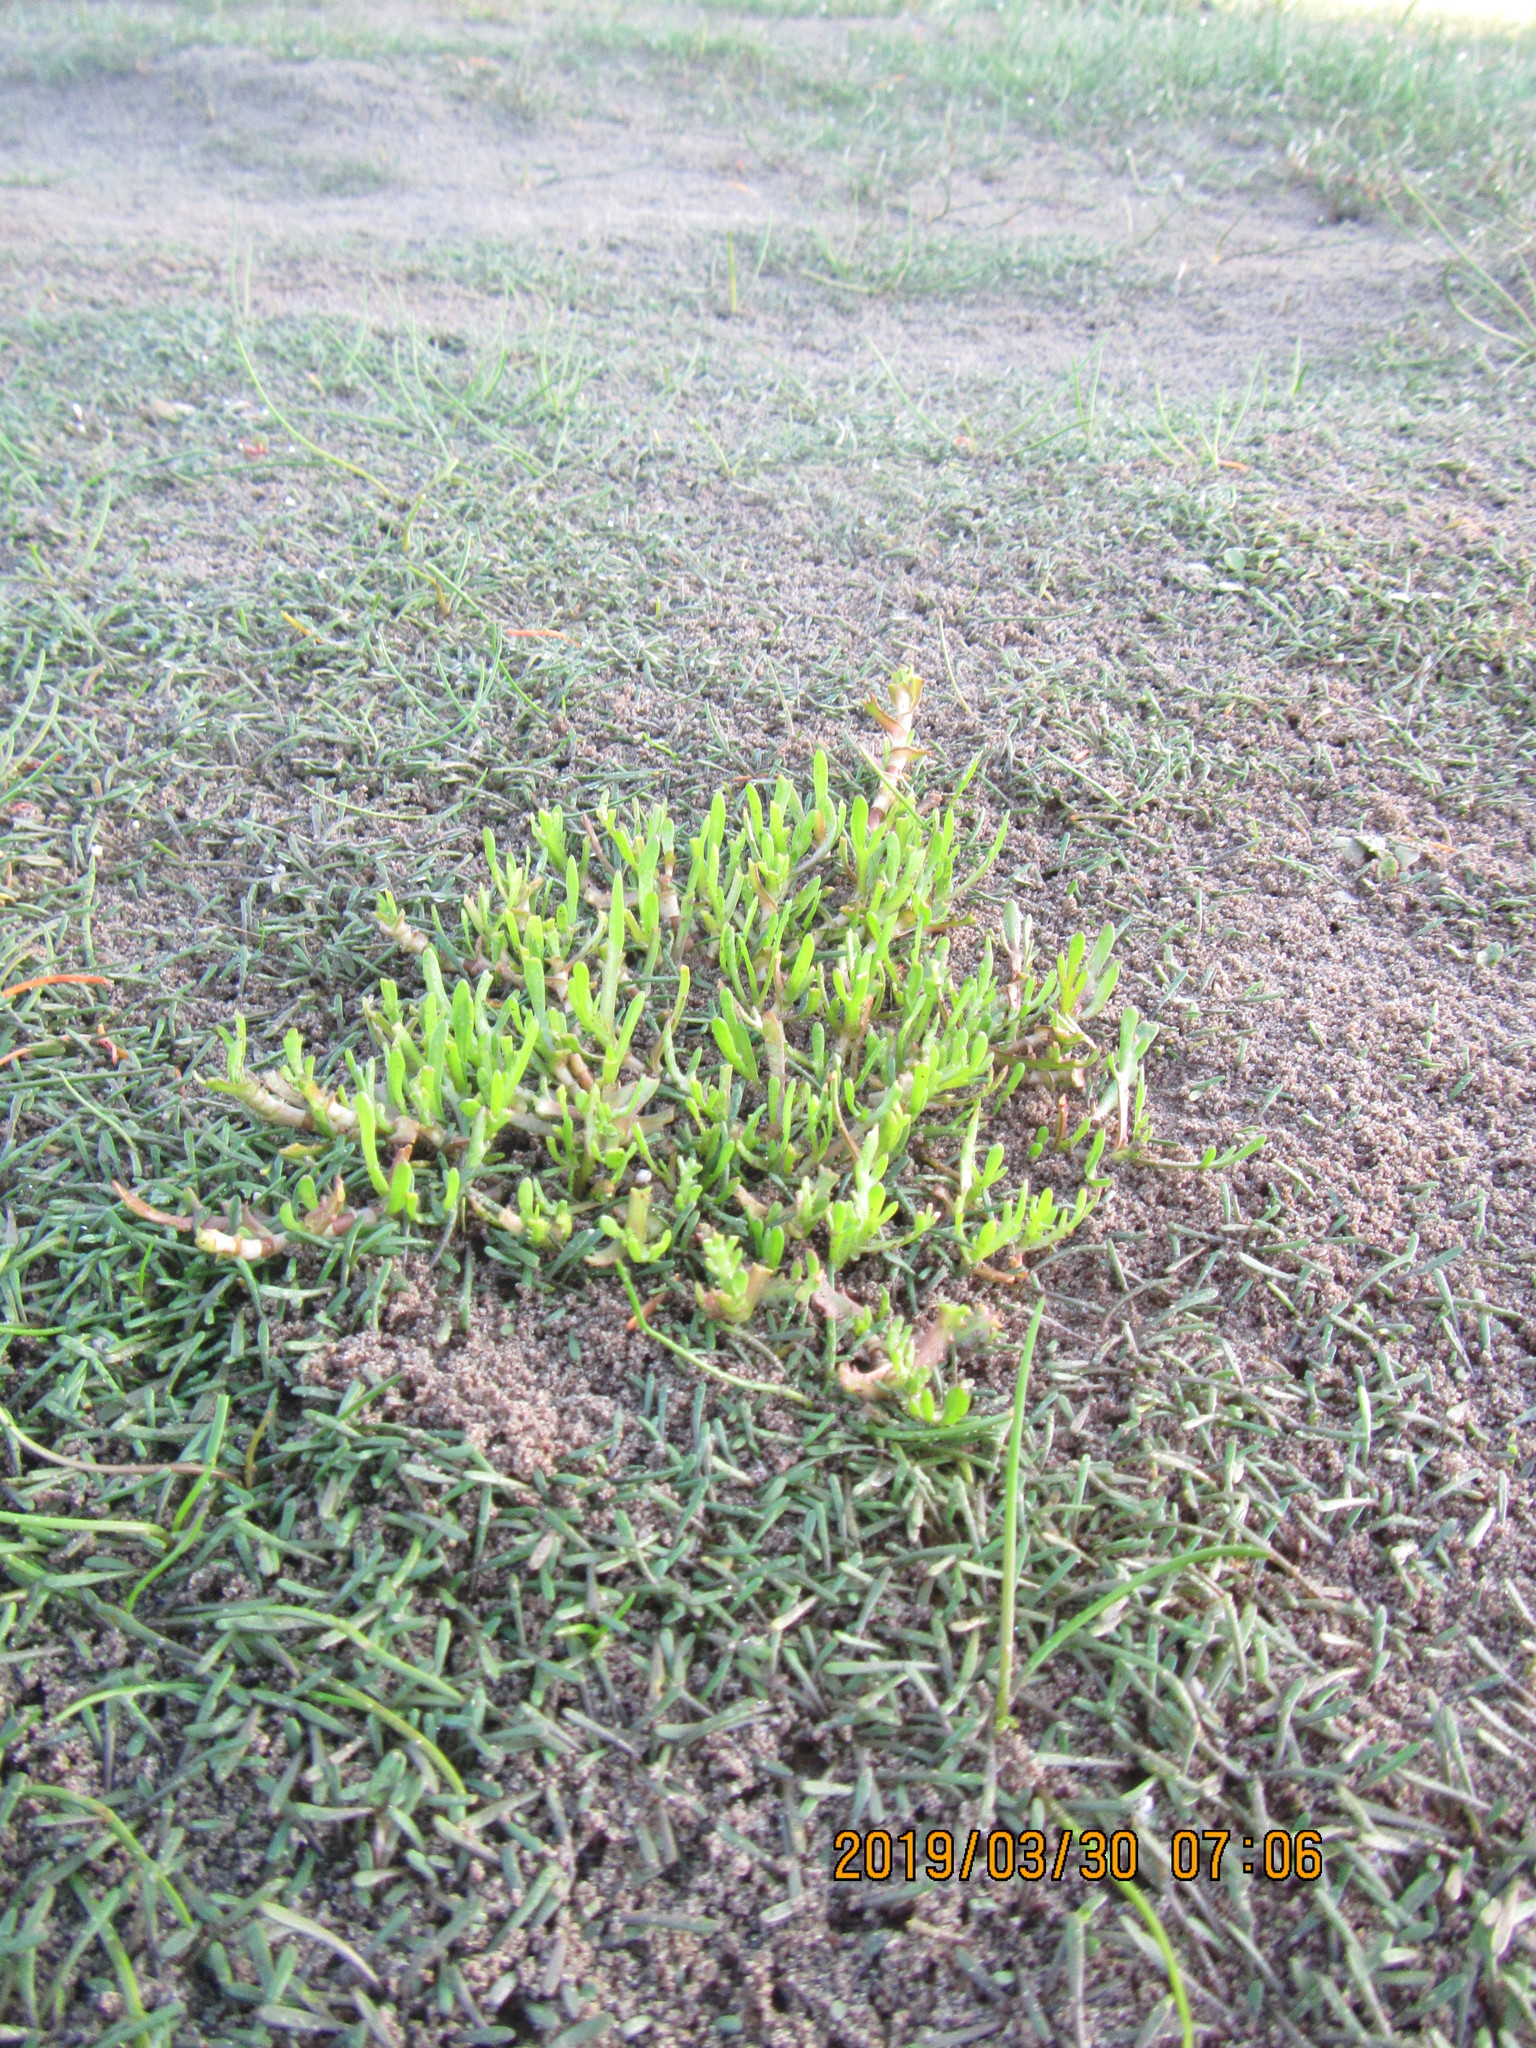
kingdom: Plantae
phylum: Tracheophyta
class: Magnoliopsida
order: Asterales
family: Asteraceae
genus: Cotula
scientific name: Cotula coronopifolia
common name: Buttonweed
